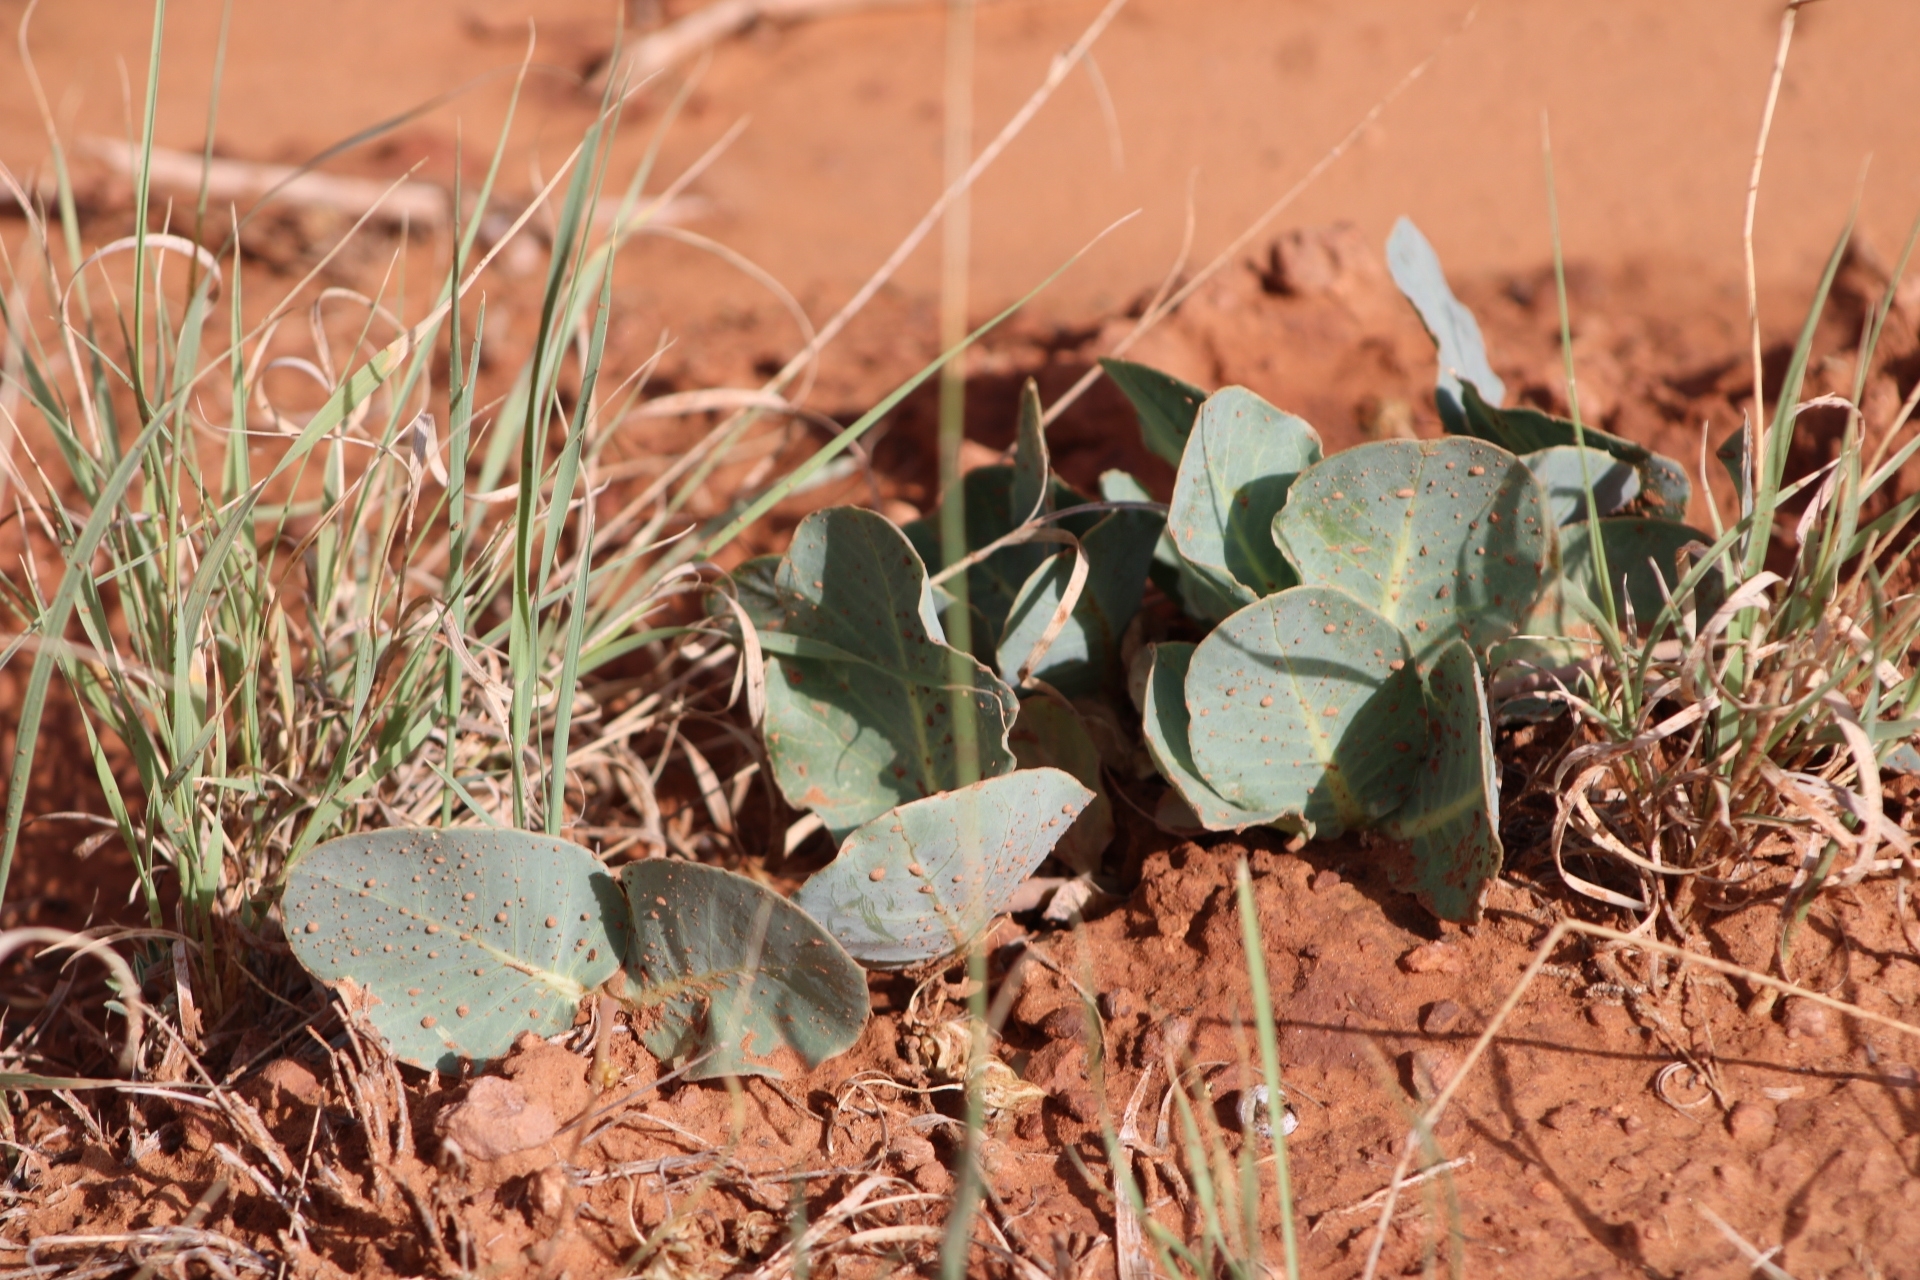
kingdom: Plantae
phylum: Tracheophyta
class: Magnoliopsida
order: Gentianales
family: Apocynaceae
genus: Asclepias
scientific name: Asclepias cryptoceras
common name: Humboldt mountains milkweed
